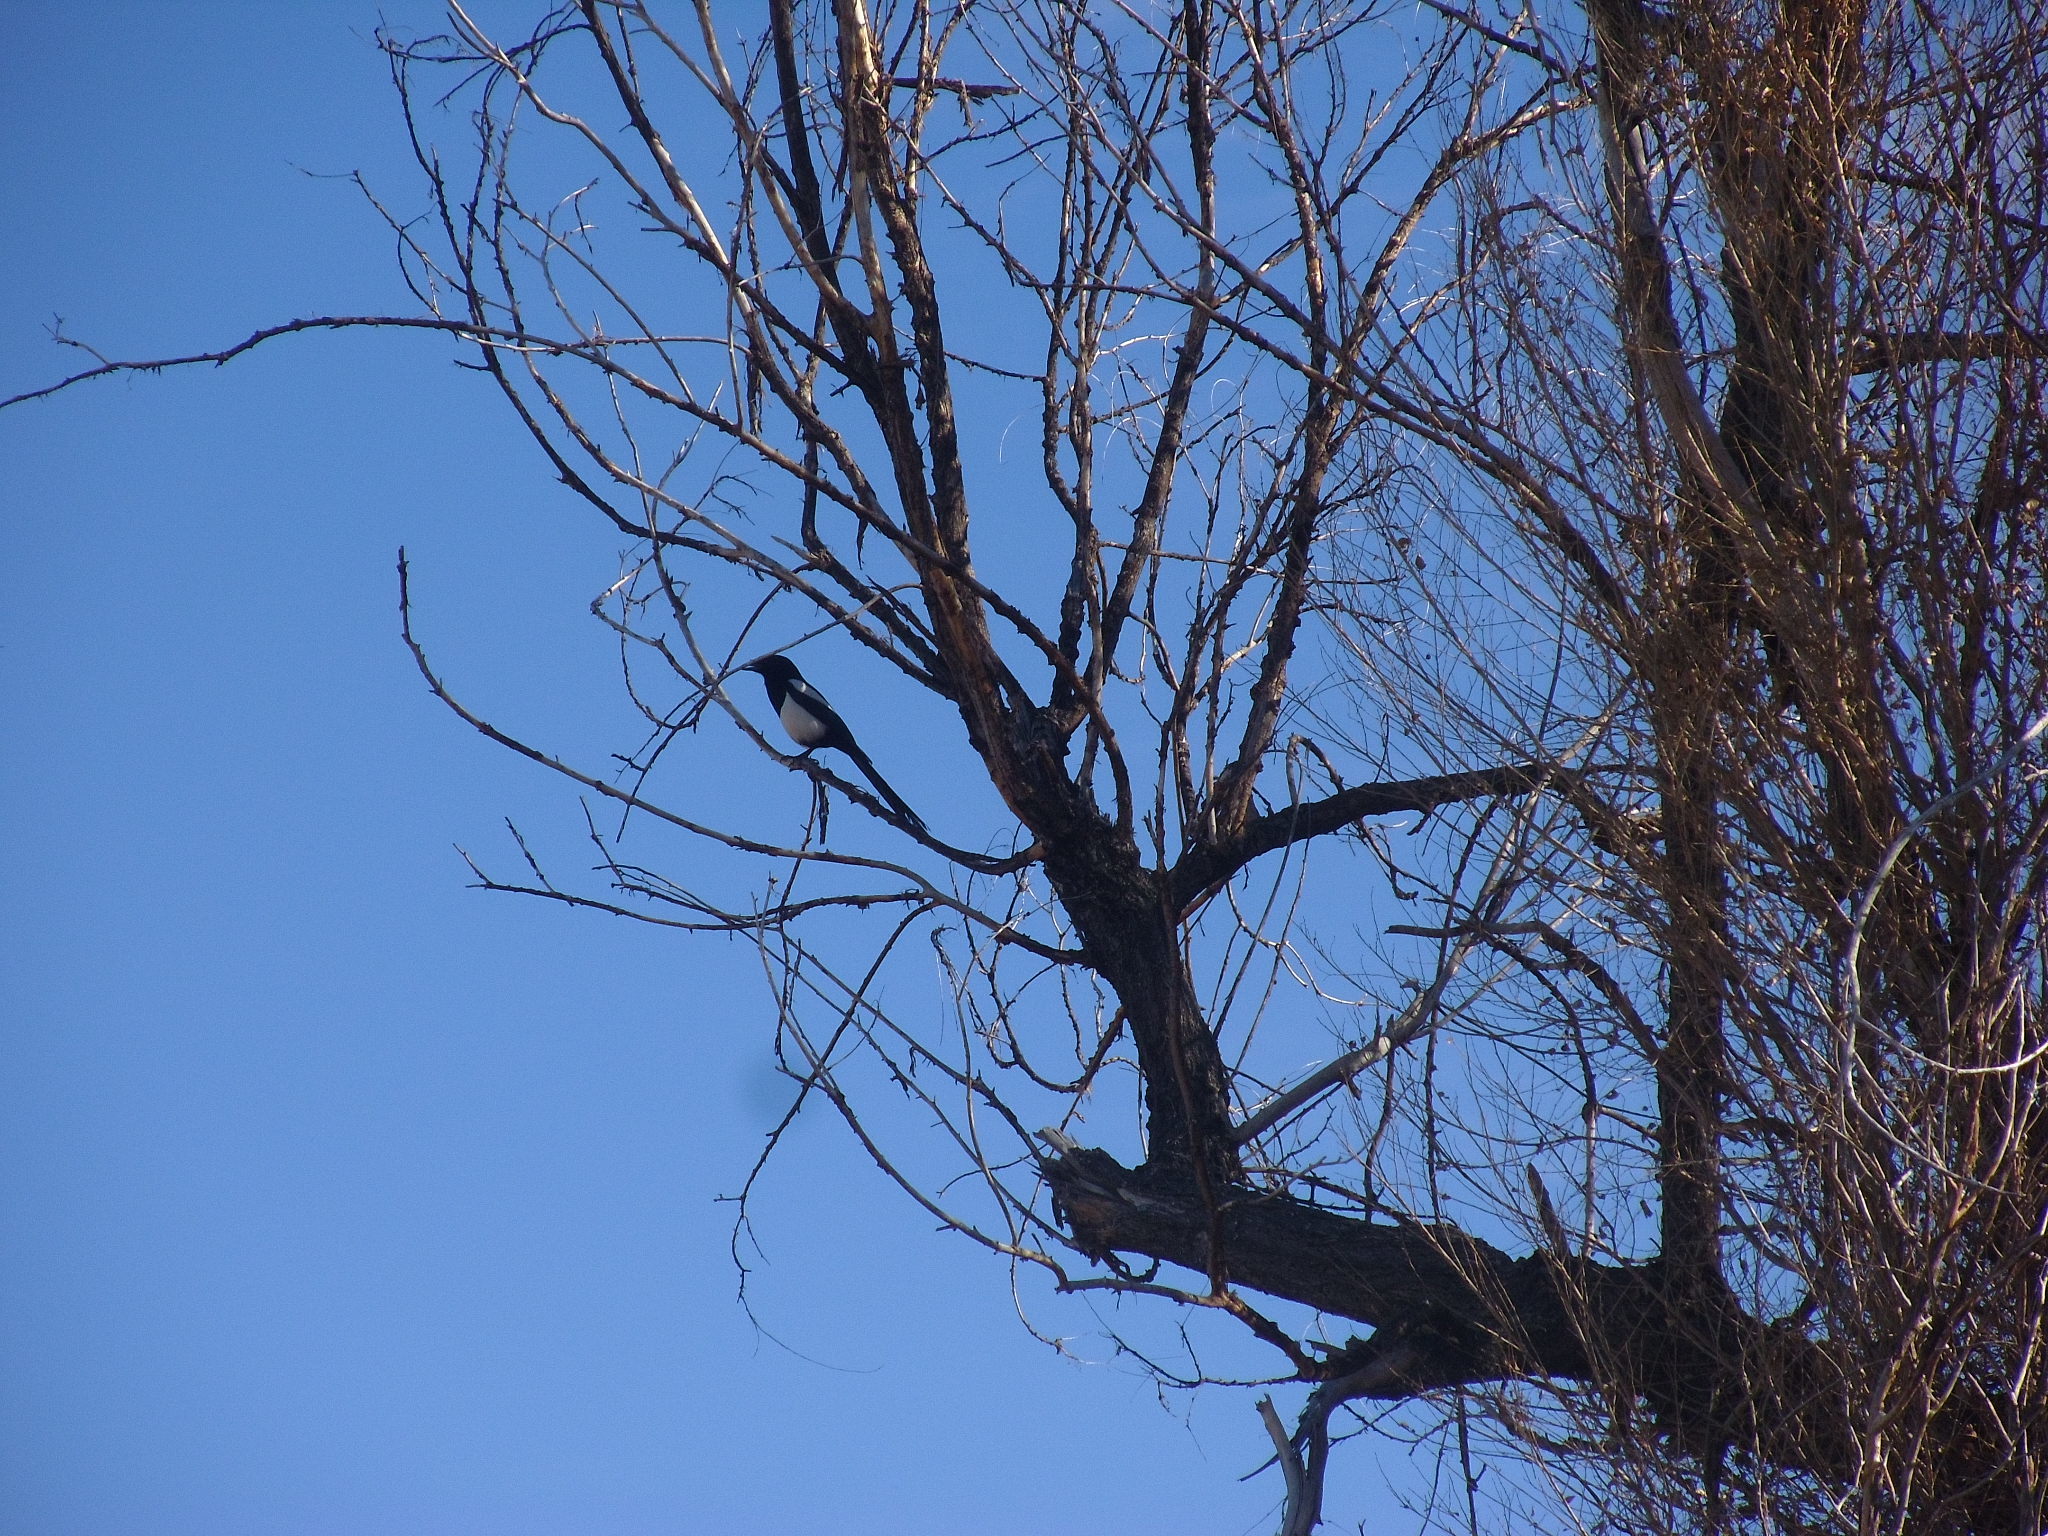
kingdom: Animalia
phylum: Chordata
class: Aves
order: Passeriformes
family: Corvidae
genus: Pica
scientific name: Pica hudsonia
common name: Black-billed magpie
